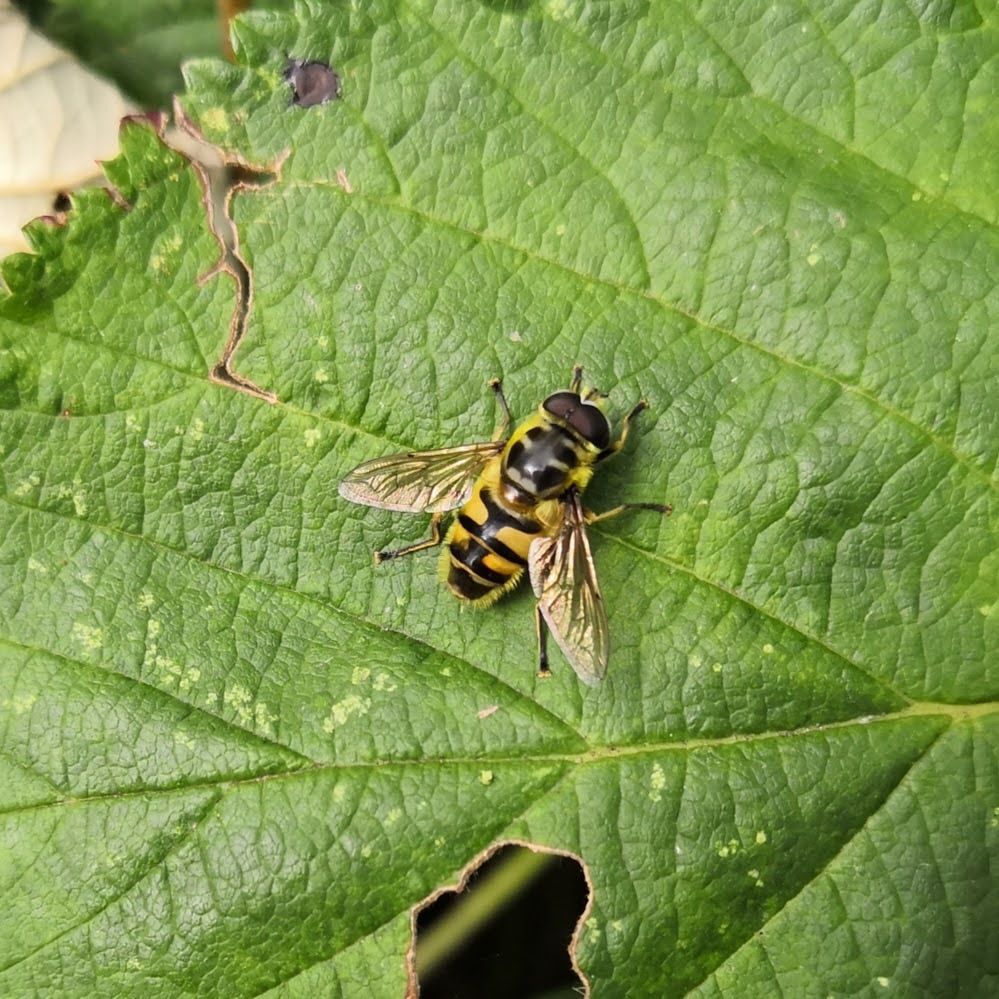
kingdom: Animalia
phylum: Arthropoda
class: Insecta
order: Diptera
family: Syrphidae
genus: Myathropa
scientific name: Myathropa florea
